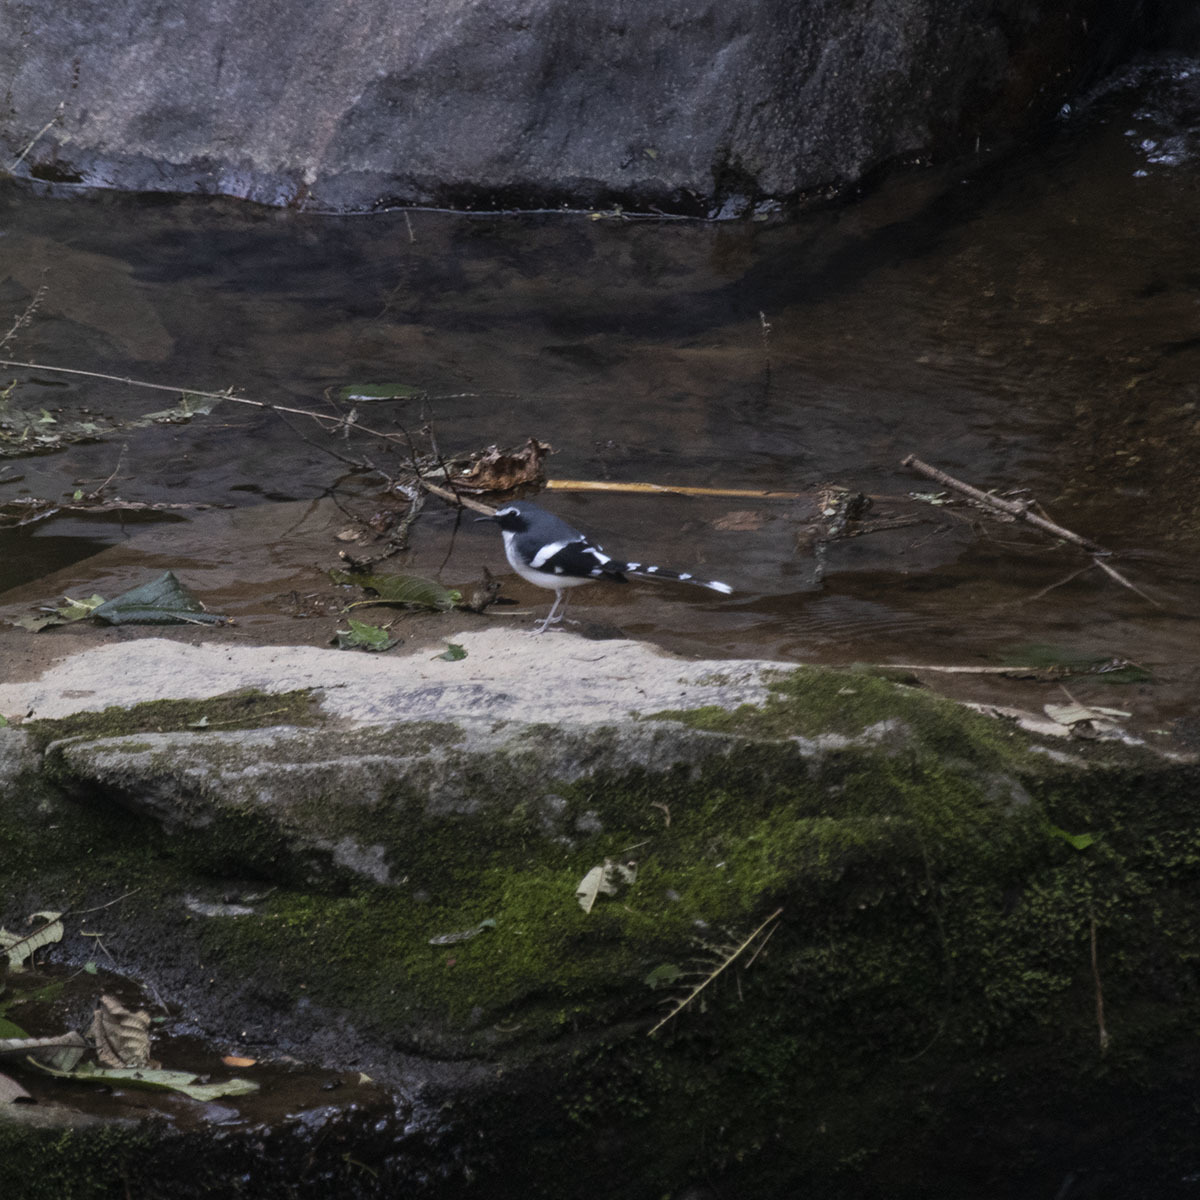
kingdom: Animalia
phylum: Chordata
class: Aves
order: Passeriformes
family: Muscicapidae
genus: Enicurus
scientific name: Enicurus schistaceus
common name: Slaty-backed forktail
